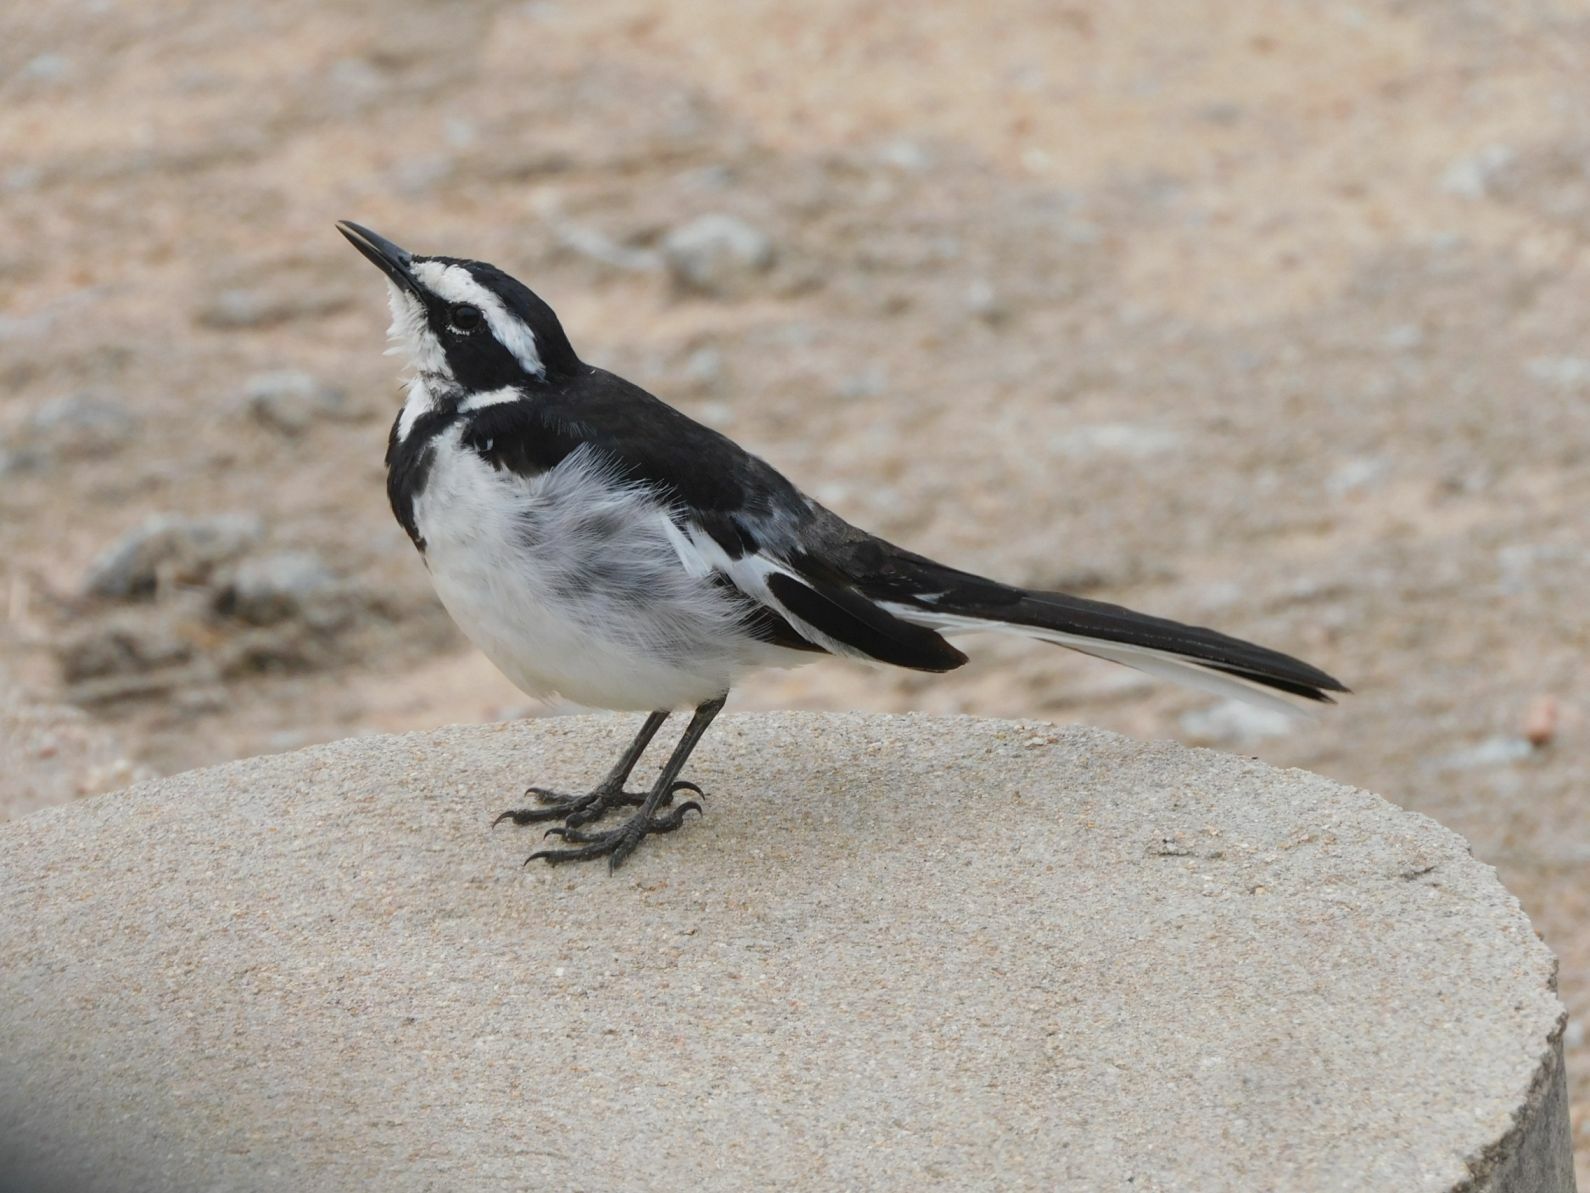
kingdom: Animalia
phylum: Chordata
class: Aves
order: Passeriformes
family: Motacillidae
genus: Motacilla
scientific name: Motacilla aguimp
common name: African pied wagtail
